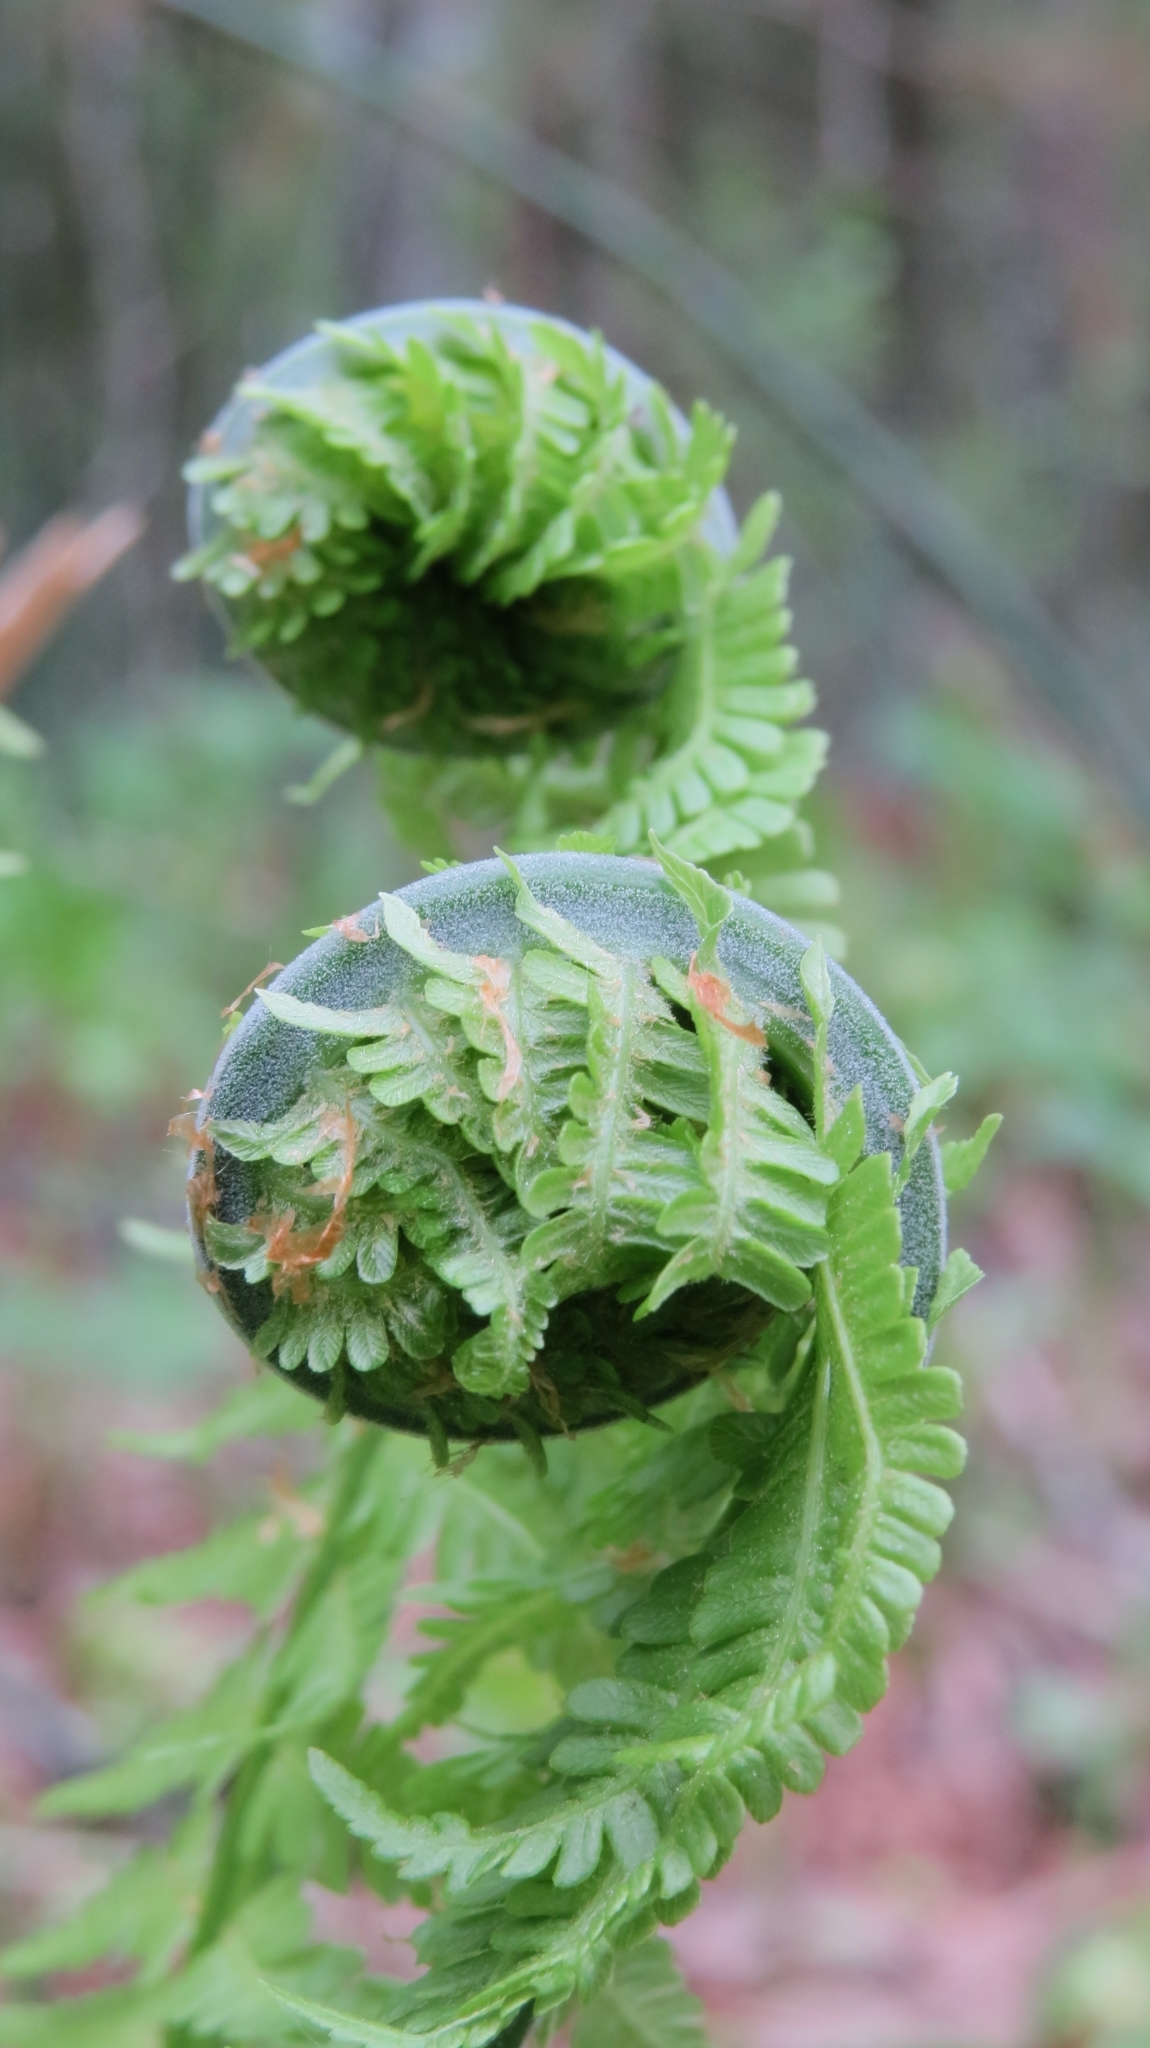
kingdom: Plantae
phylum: Tracheophyta
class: Polypodiopsida
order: Polypodiales
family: Onocleaceae
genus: Matteuccia
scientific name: Matteuccia struthiopteris
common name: Ostrich fern
